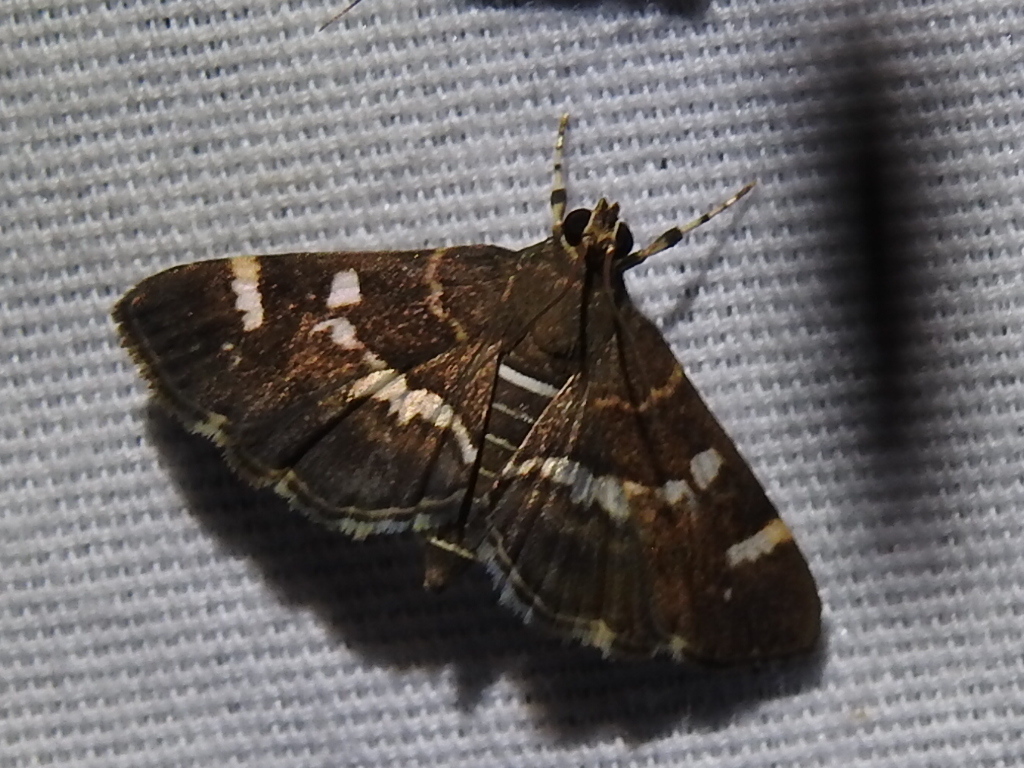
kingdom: Animalia
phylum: Arthropoda
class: Insecta
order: Lepidoptera
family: Crambidae
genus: Hymenia
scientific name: Hymenia perspectalis
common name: Spotted beet webworm
